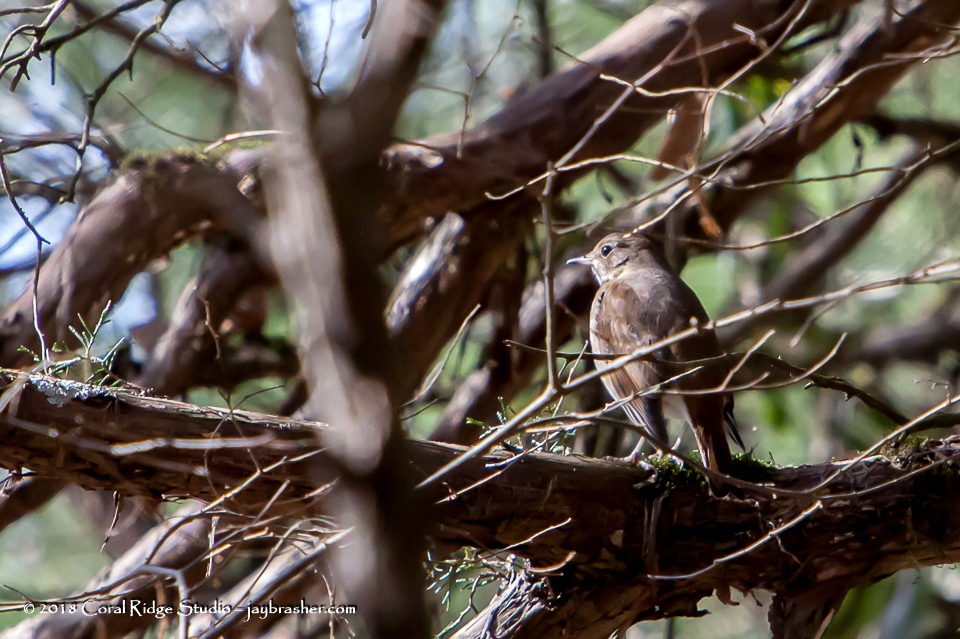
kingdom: Animalia
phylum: Chordata
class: Aves
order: Passeriformes
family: Turdidae
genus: Catharus
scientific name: Catharus guttatus
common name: Hermit thrush
